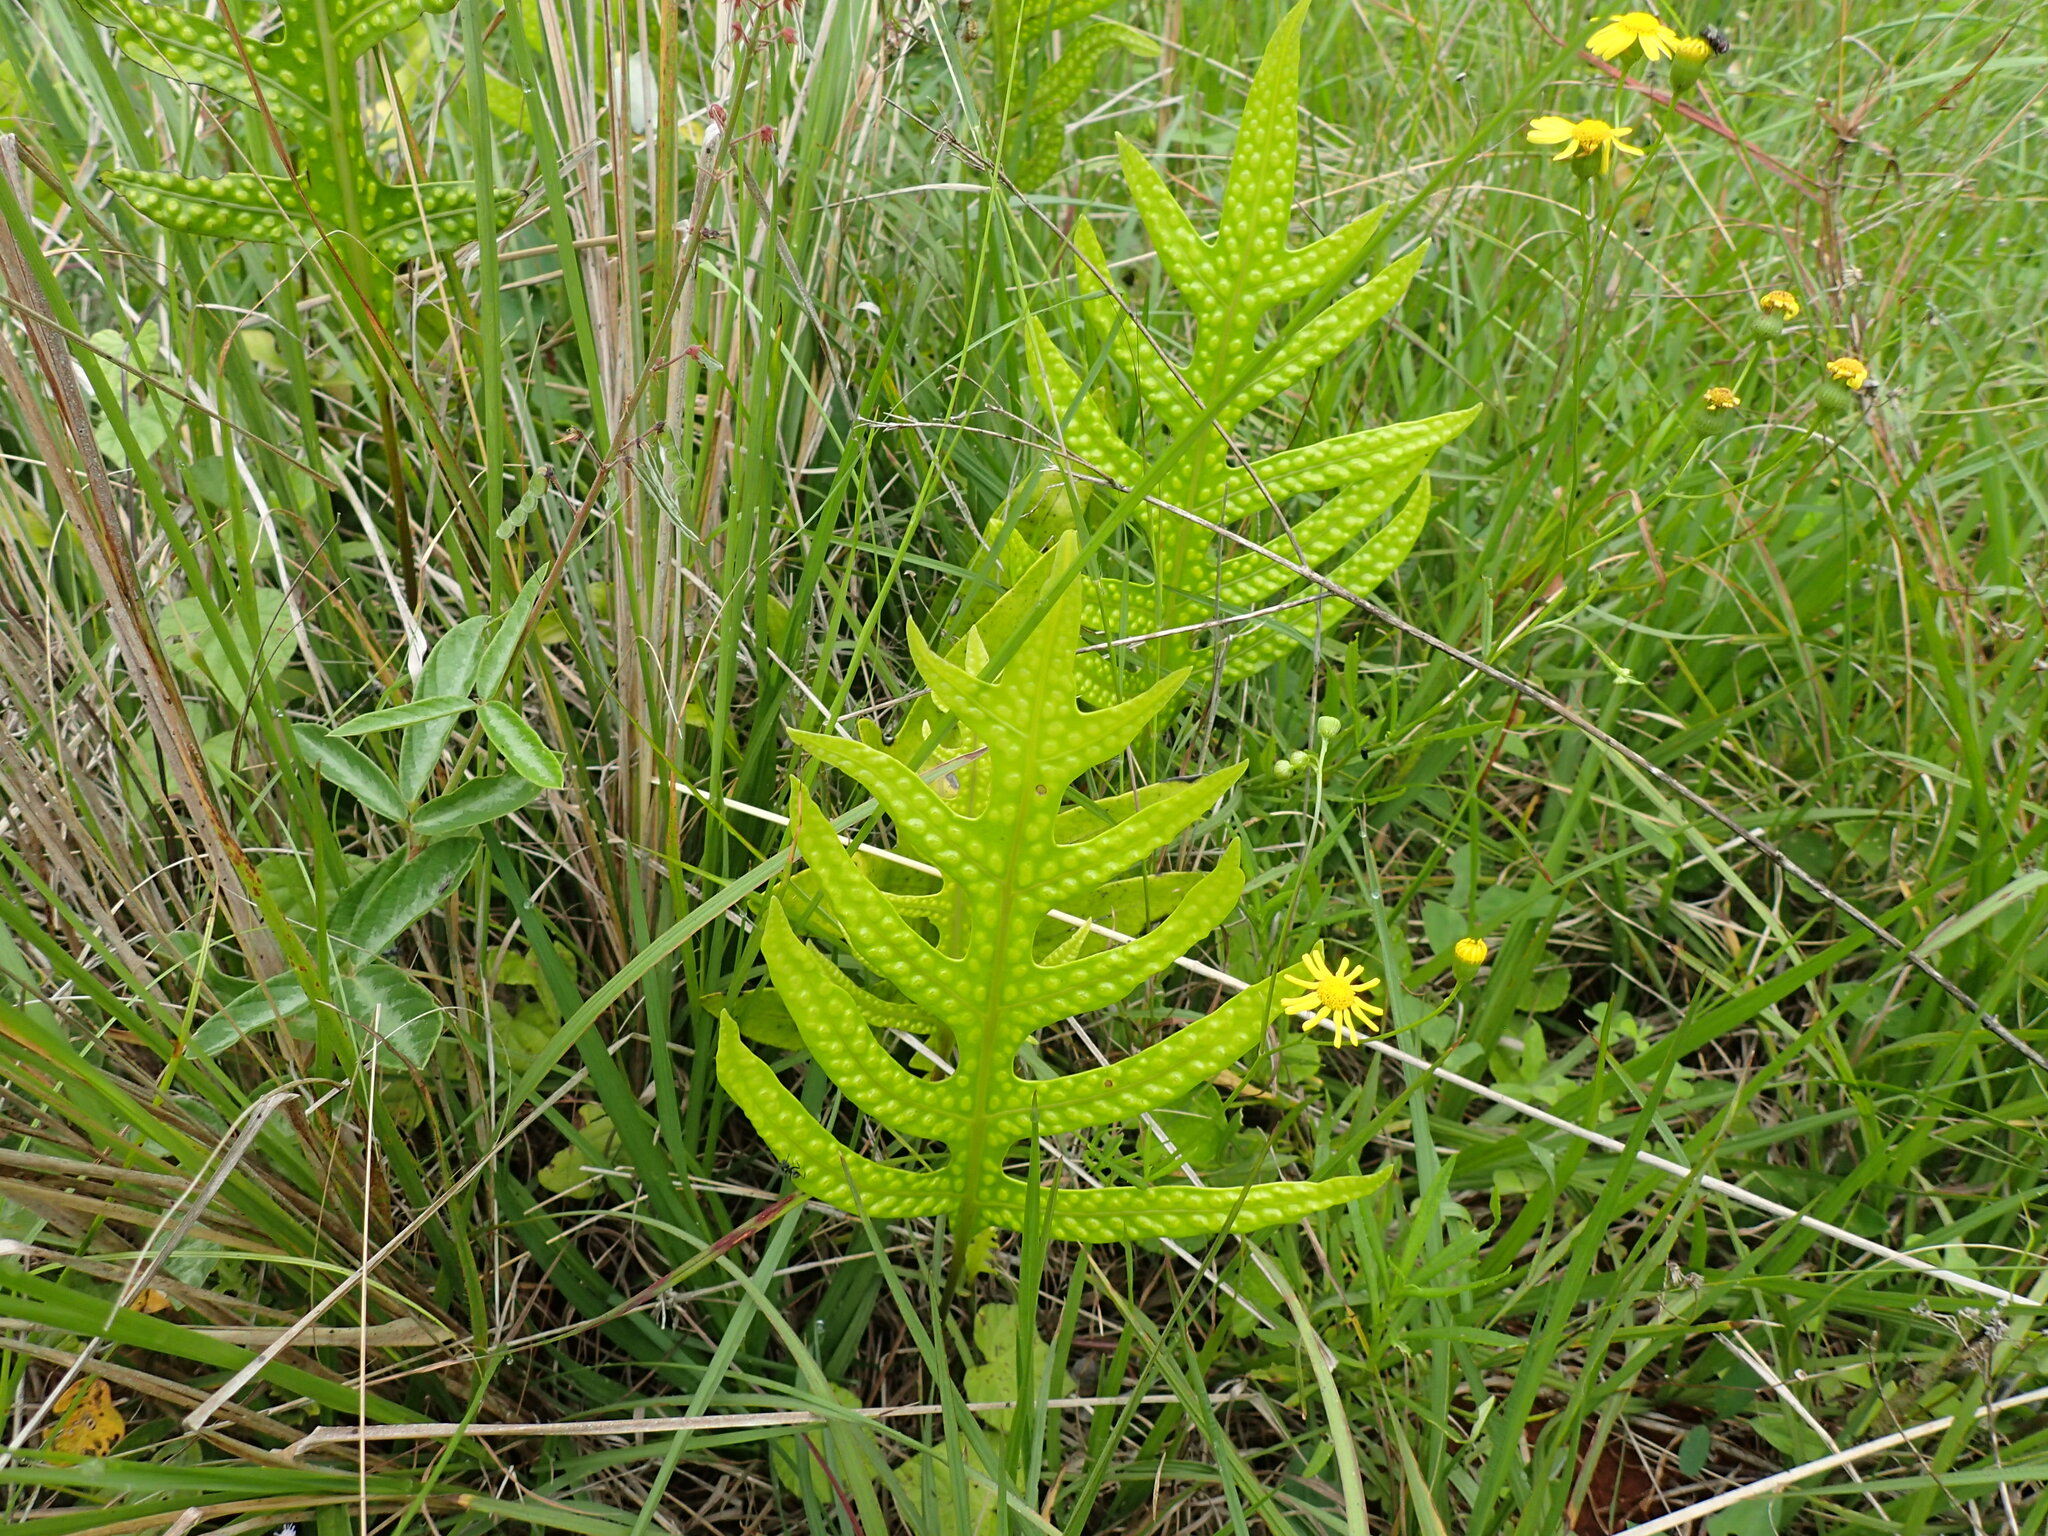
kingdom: Plantae
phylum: Tracheophyta
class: Polypodiopsida
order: Polypodiales
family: Polypodiaceae
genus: Microsorum
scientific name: Microsorum scolopendria
